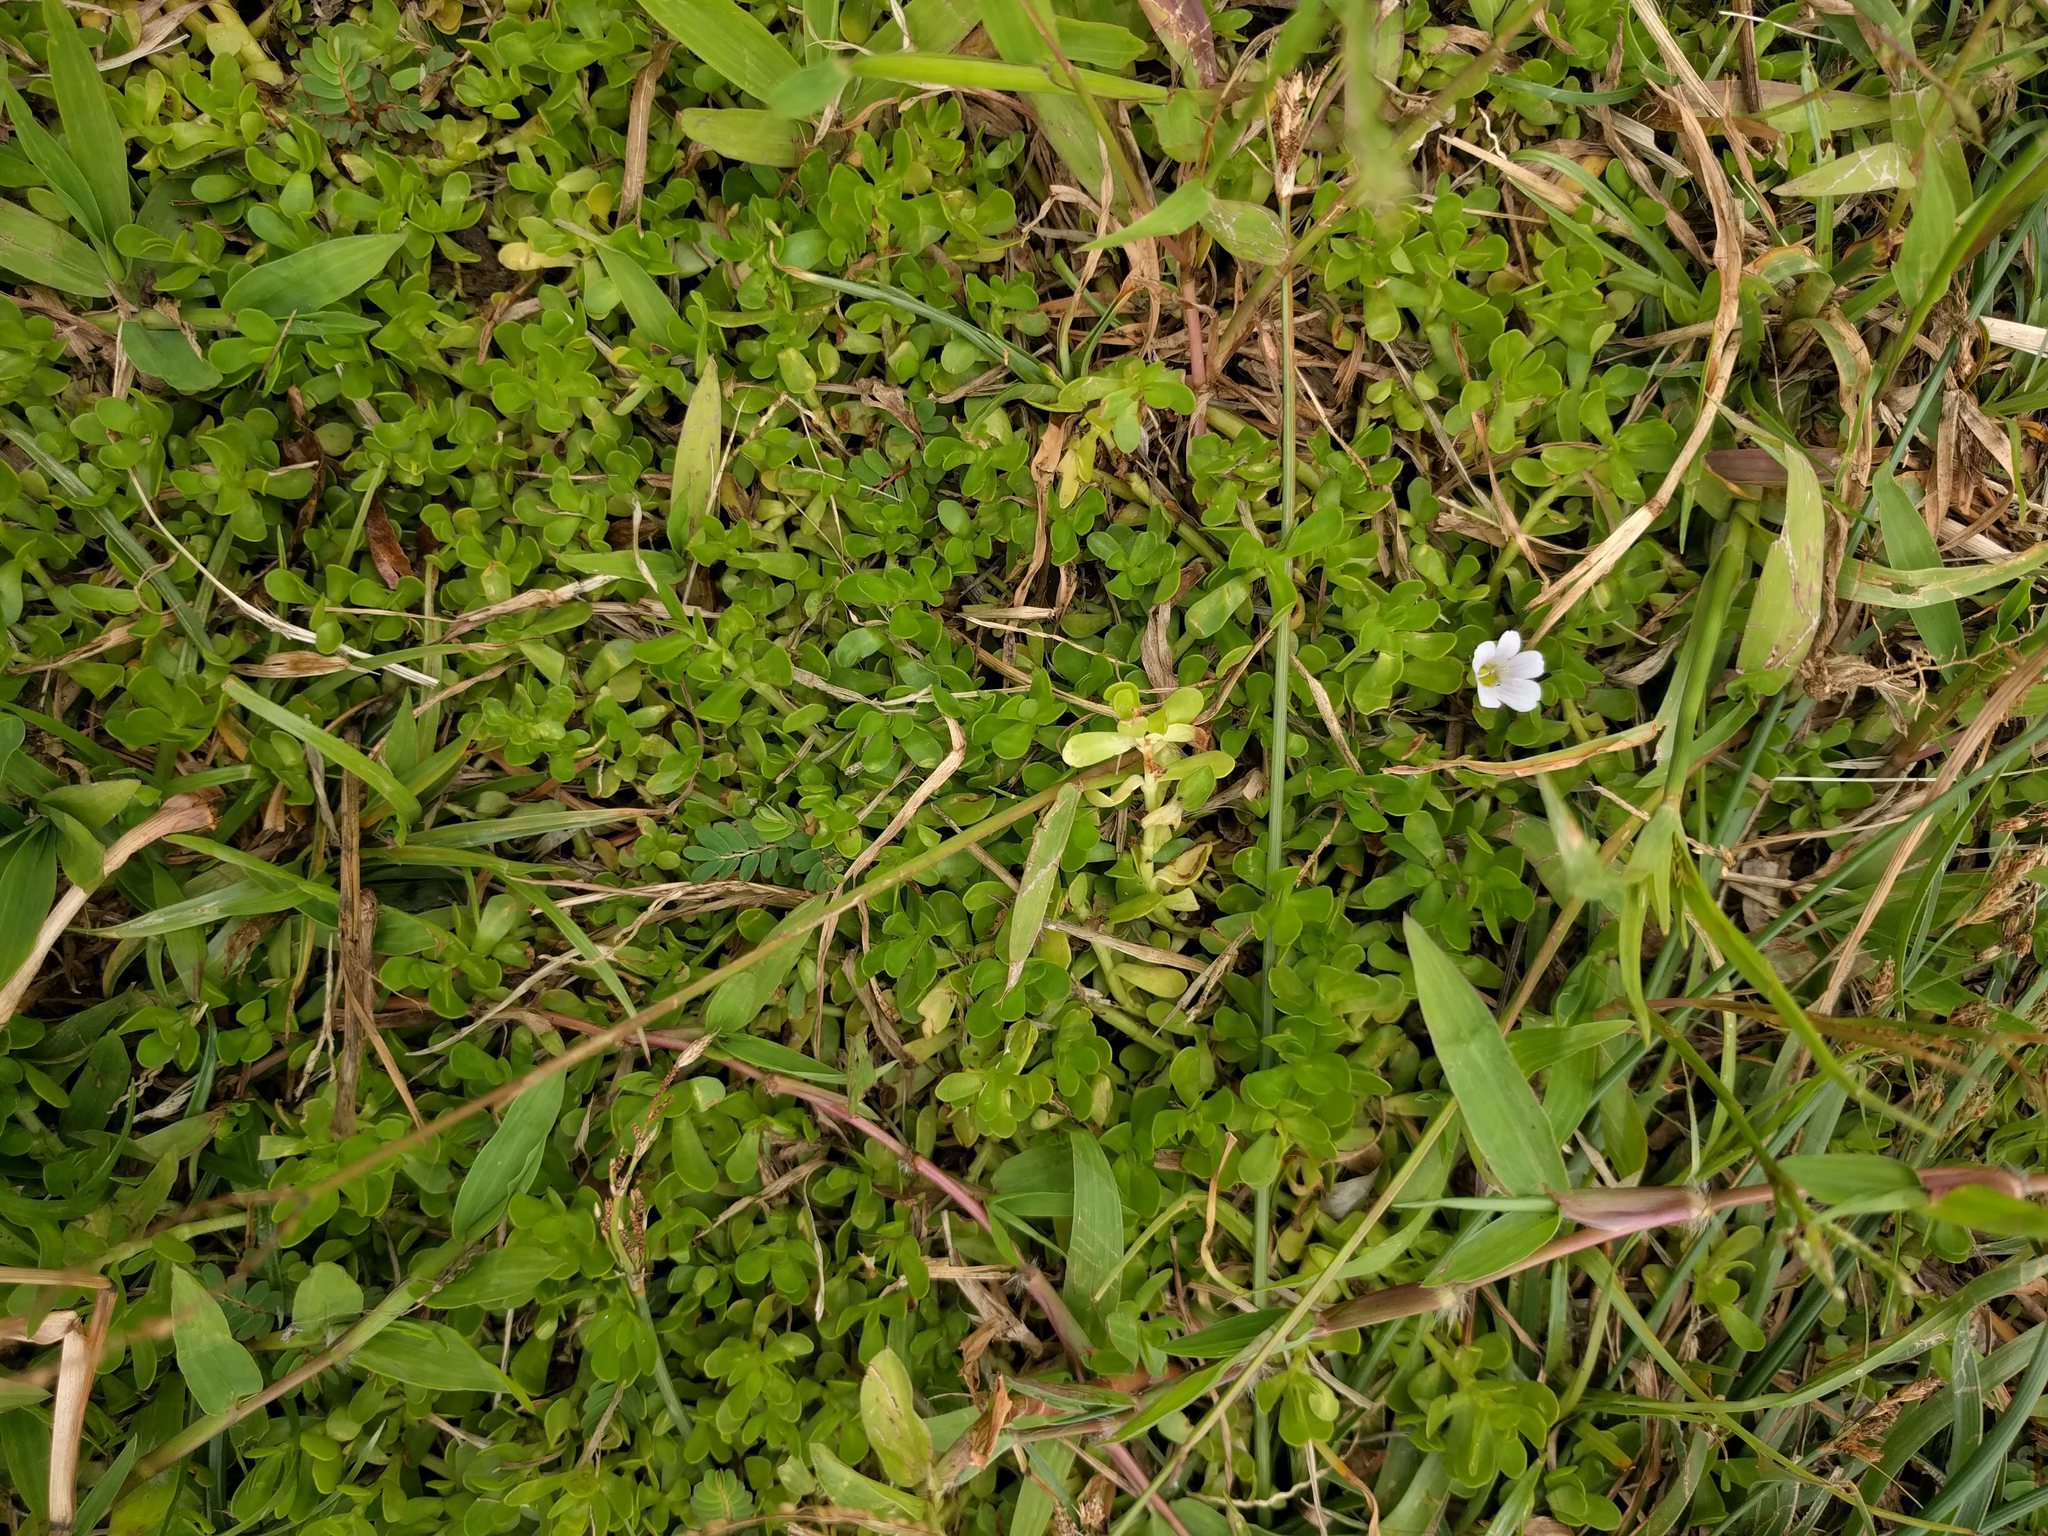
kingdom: Plantae
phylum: Tracheophyta
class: Magnoliopsida
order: Lamiales
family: Plantaginaceae
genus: Bacopa
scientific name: Bacopa monnieri
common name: Indian-pennywort
